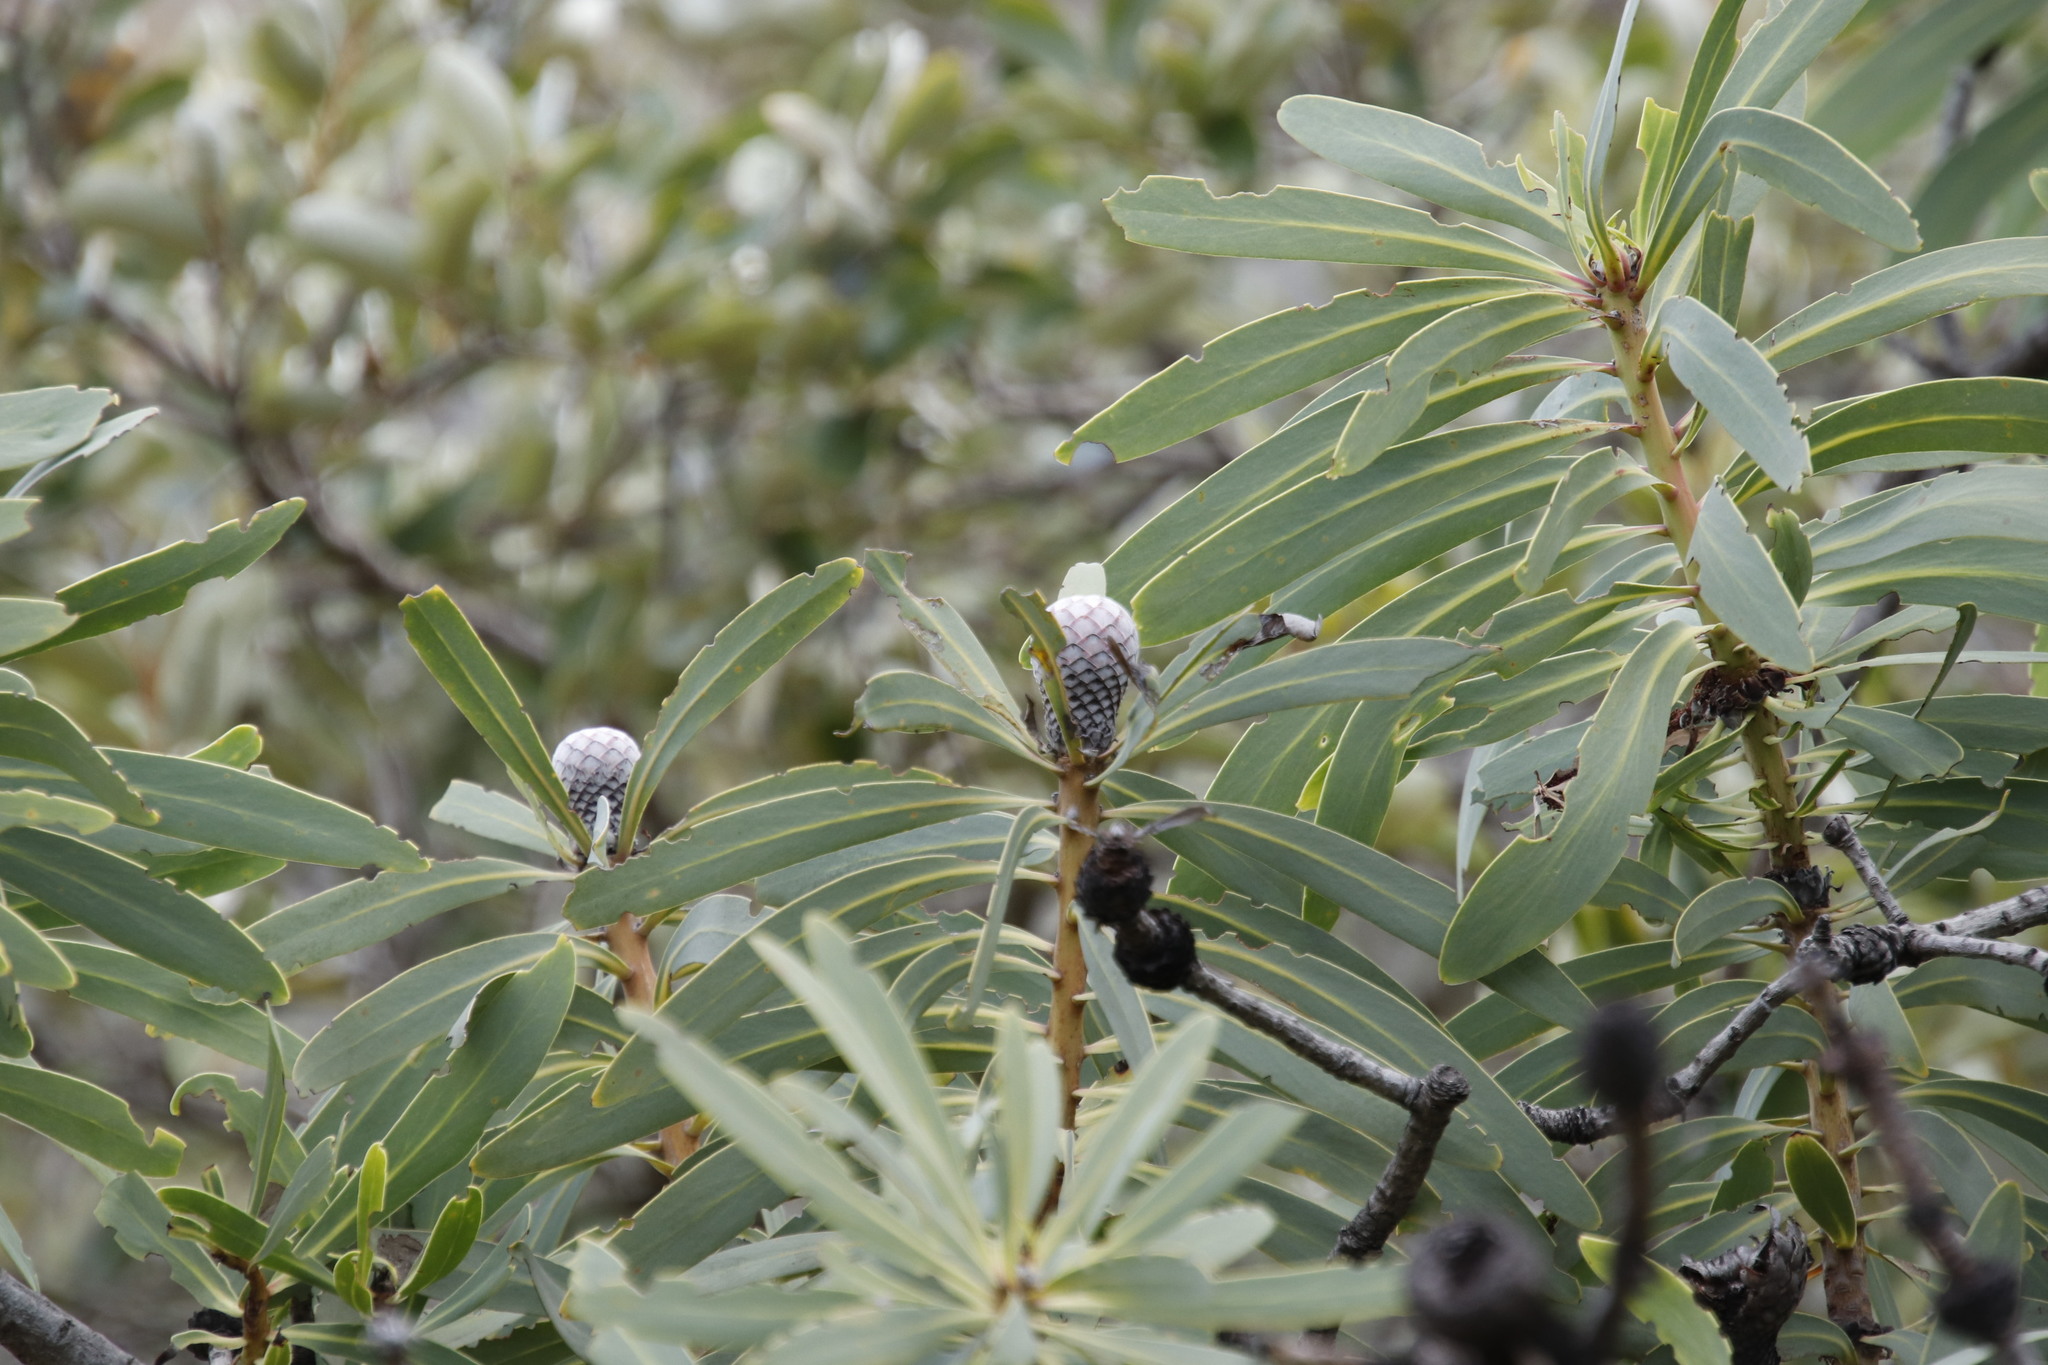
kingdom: Plantae
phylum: Tracheophyta
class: Magnoliopsida
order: Proteales
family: Proteaceae
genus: Protea
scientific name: Protea laetans
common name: Blyde protea
